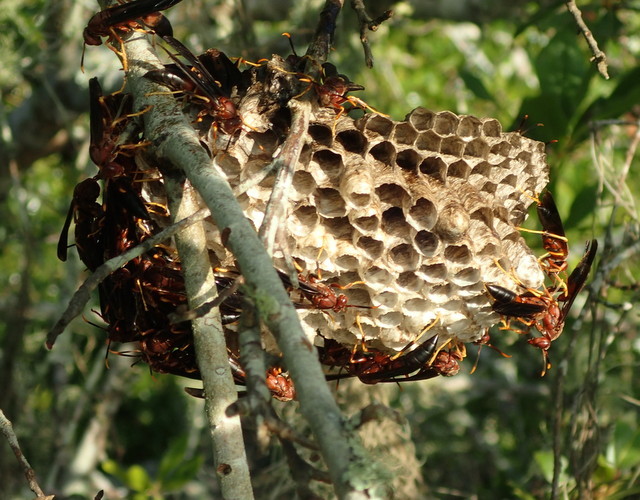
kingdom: Animalia
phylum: Arthropoda
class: Insecta
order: Hymenoptera
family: Eumenidae
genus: Polistes
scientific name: Polistes annularis
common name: Ringed paper wasp
